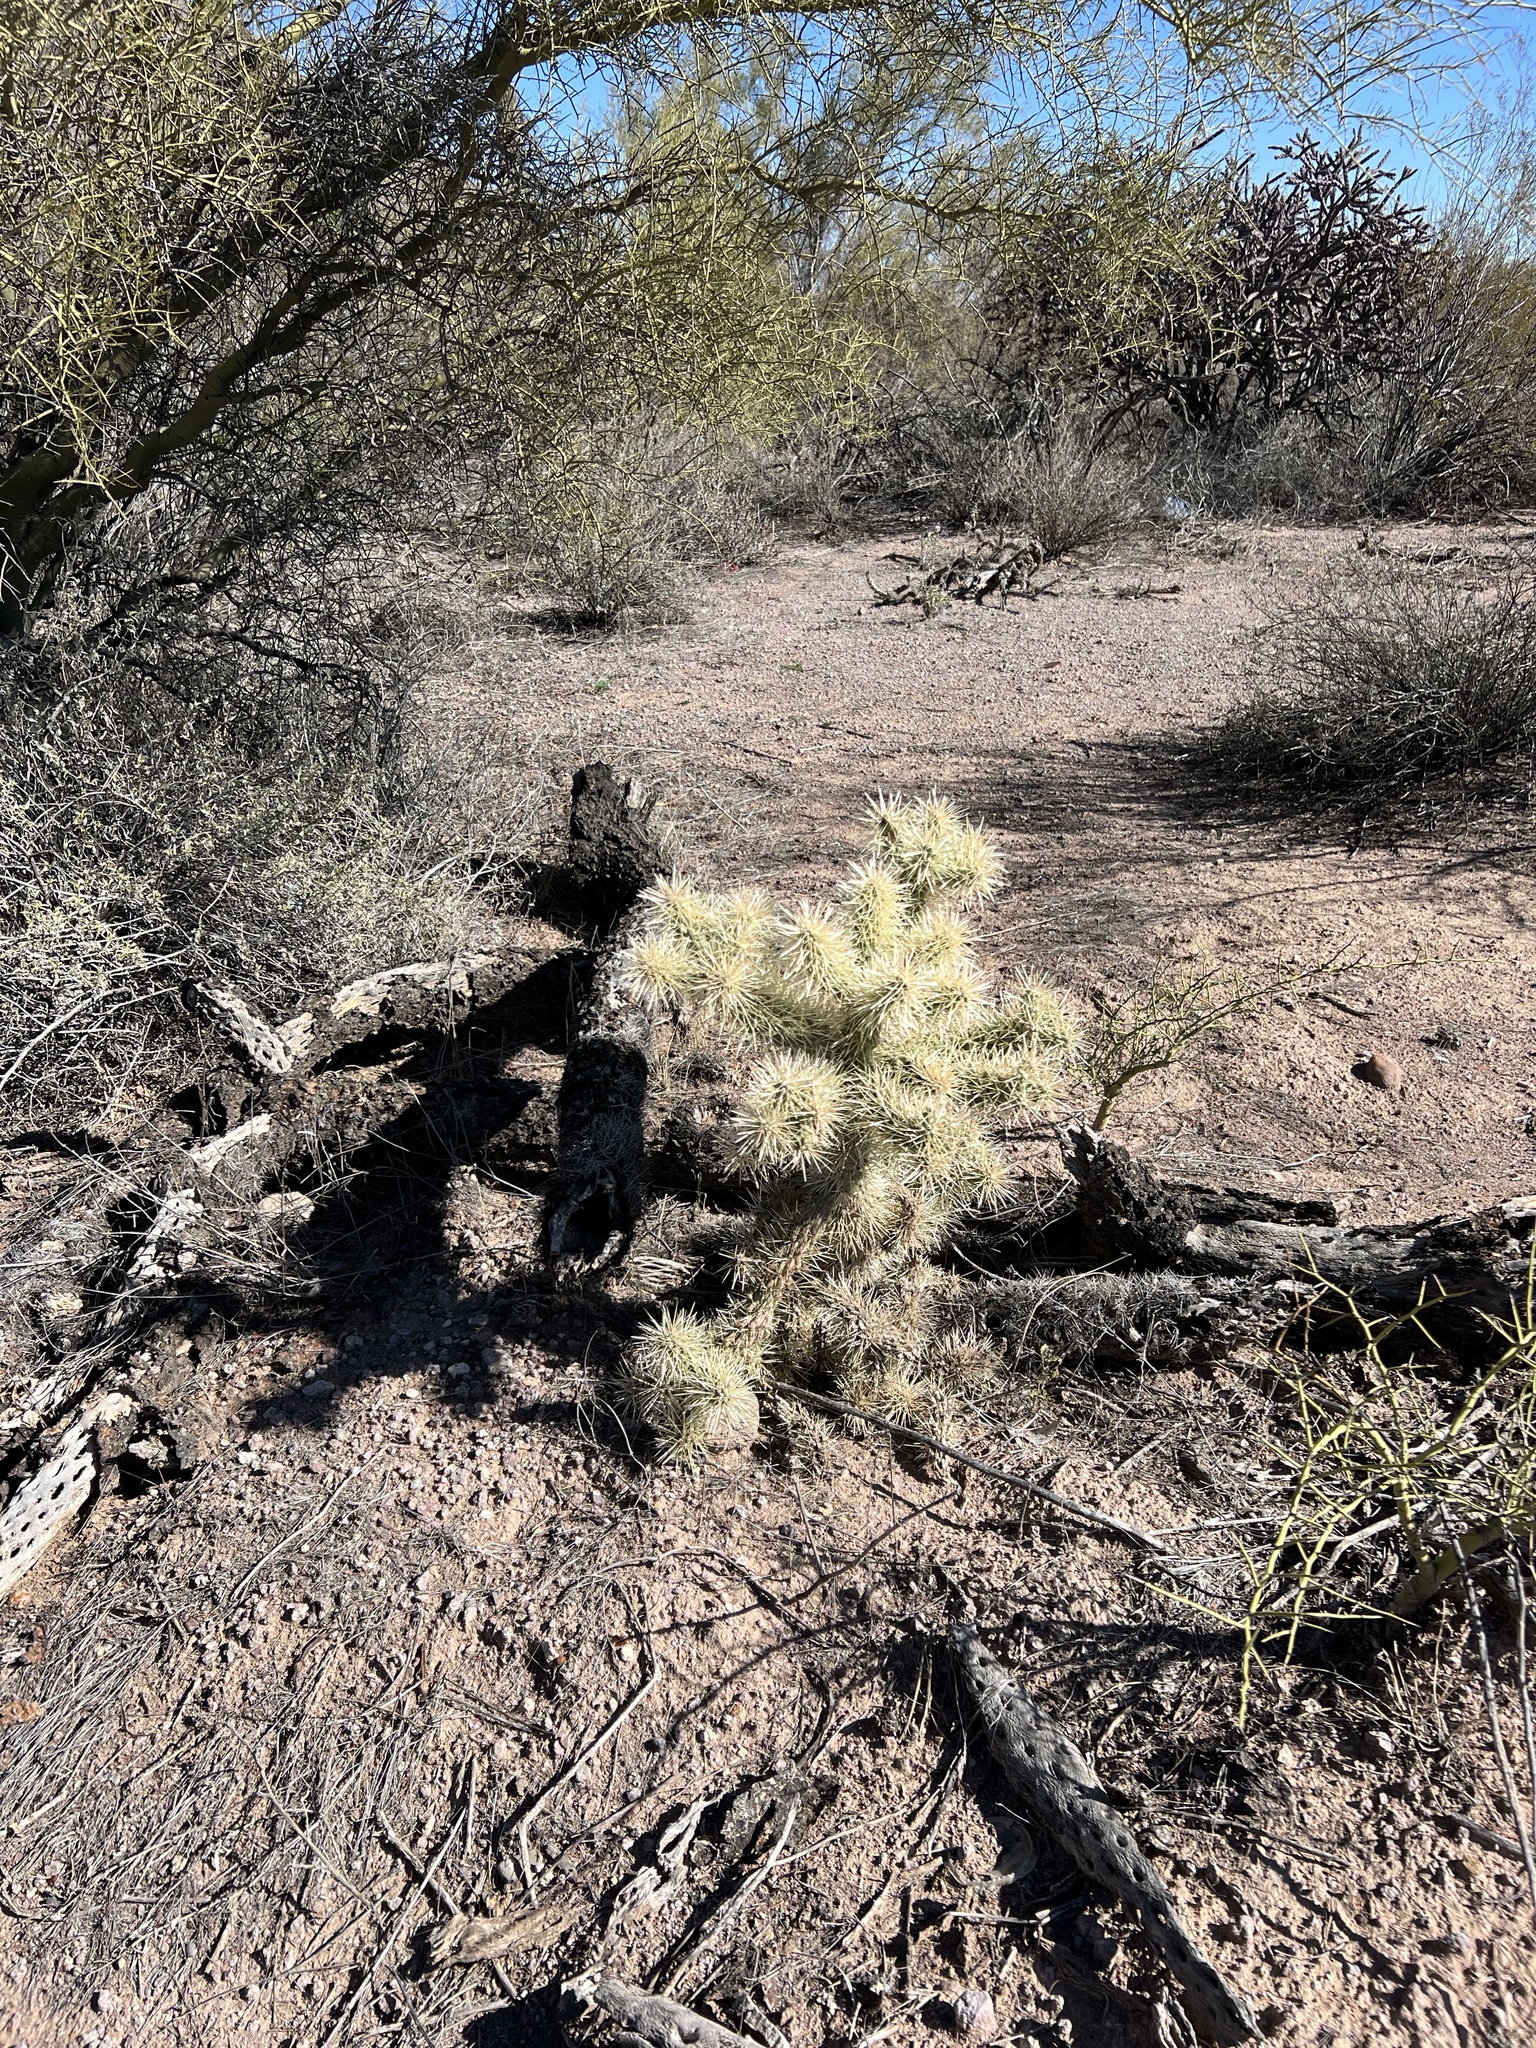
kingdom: Plantae
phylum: Tracheophyta
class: Magnoliopsida
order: Caryophyllales
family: Cactaceae
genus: Cylindropuntia
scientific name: Cylindropuntia fulgida
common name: Jumping cholla
